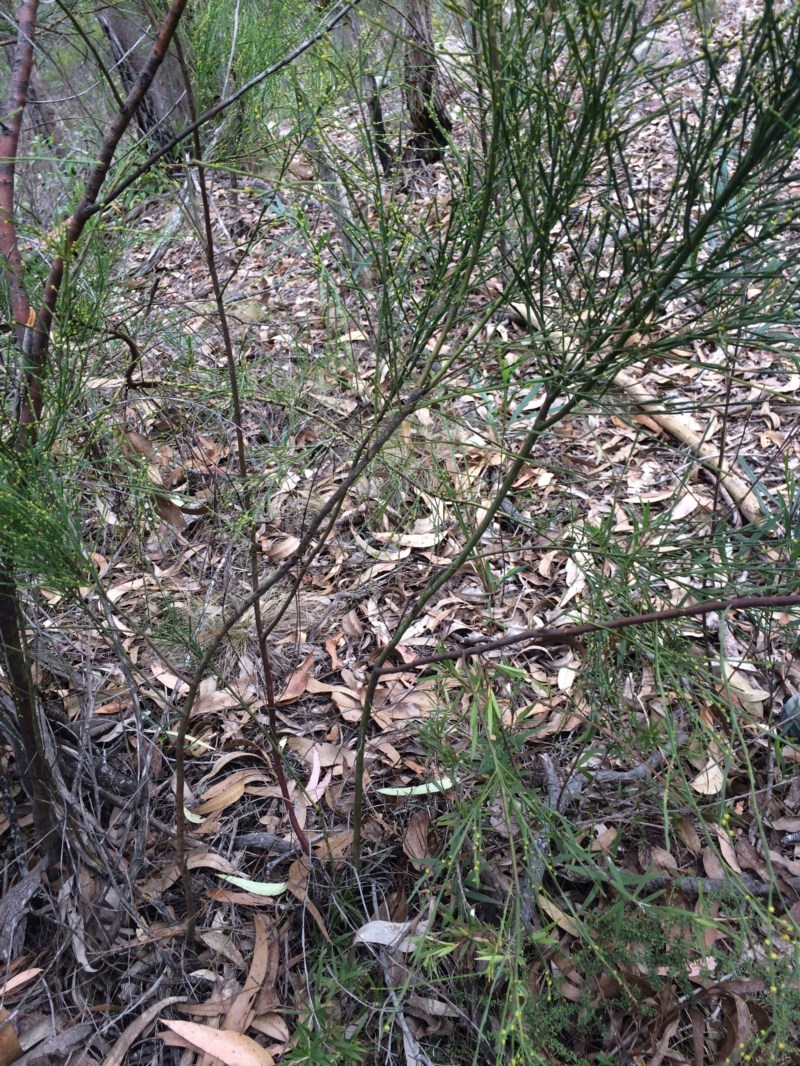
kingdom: Plantae
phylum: Tracheophyta
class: Magnoliopsida
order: Santalales
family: Santalaceae
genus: Exocarpos
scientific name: Exocarpos strictus
